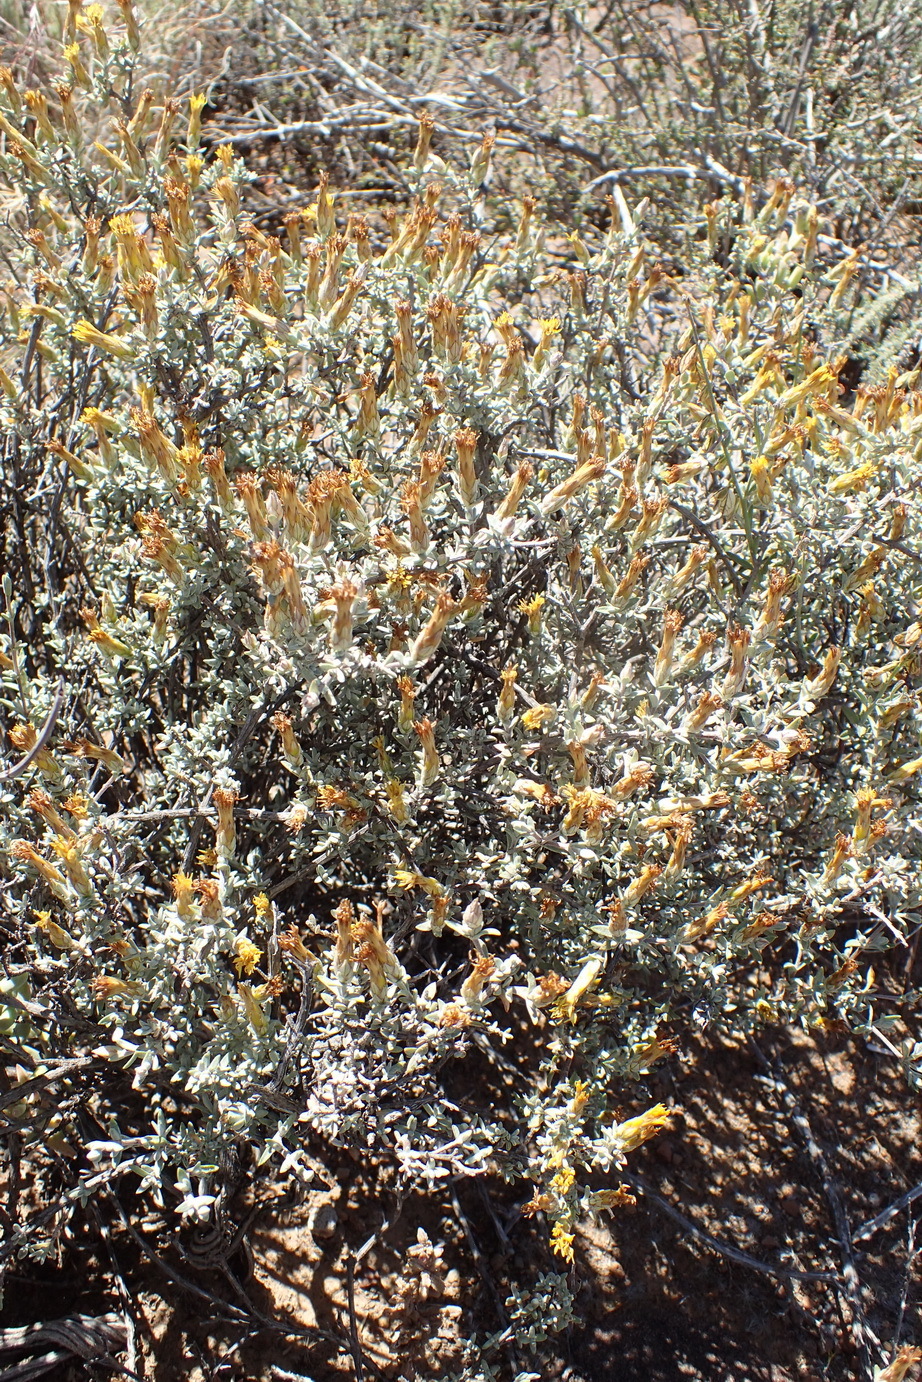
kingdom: Plantae
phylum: Tracheophyta
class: Magnoliopsida
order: Asterales
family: Asteraceae
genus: Pteronia
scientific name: Pteronia glauca
